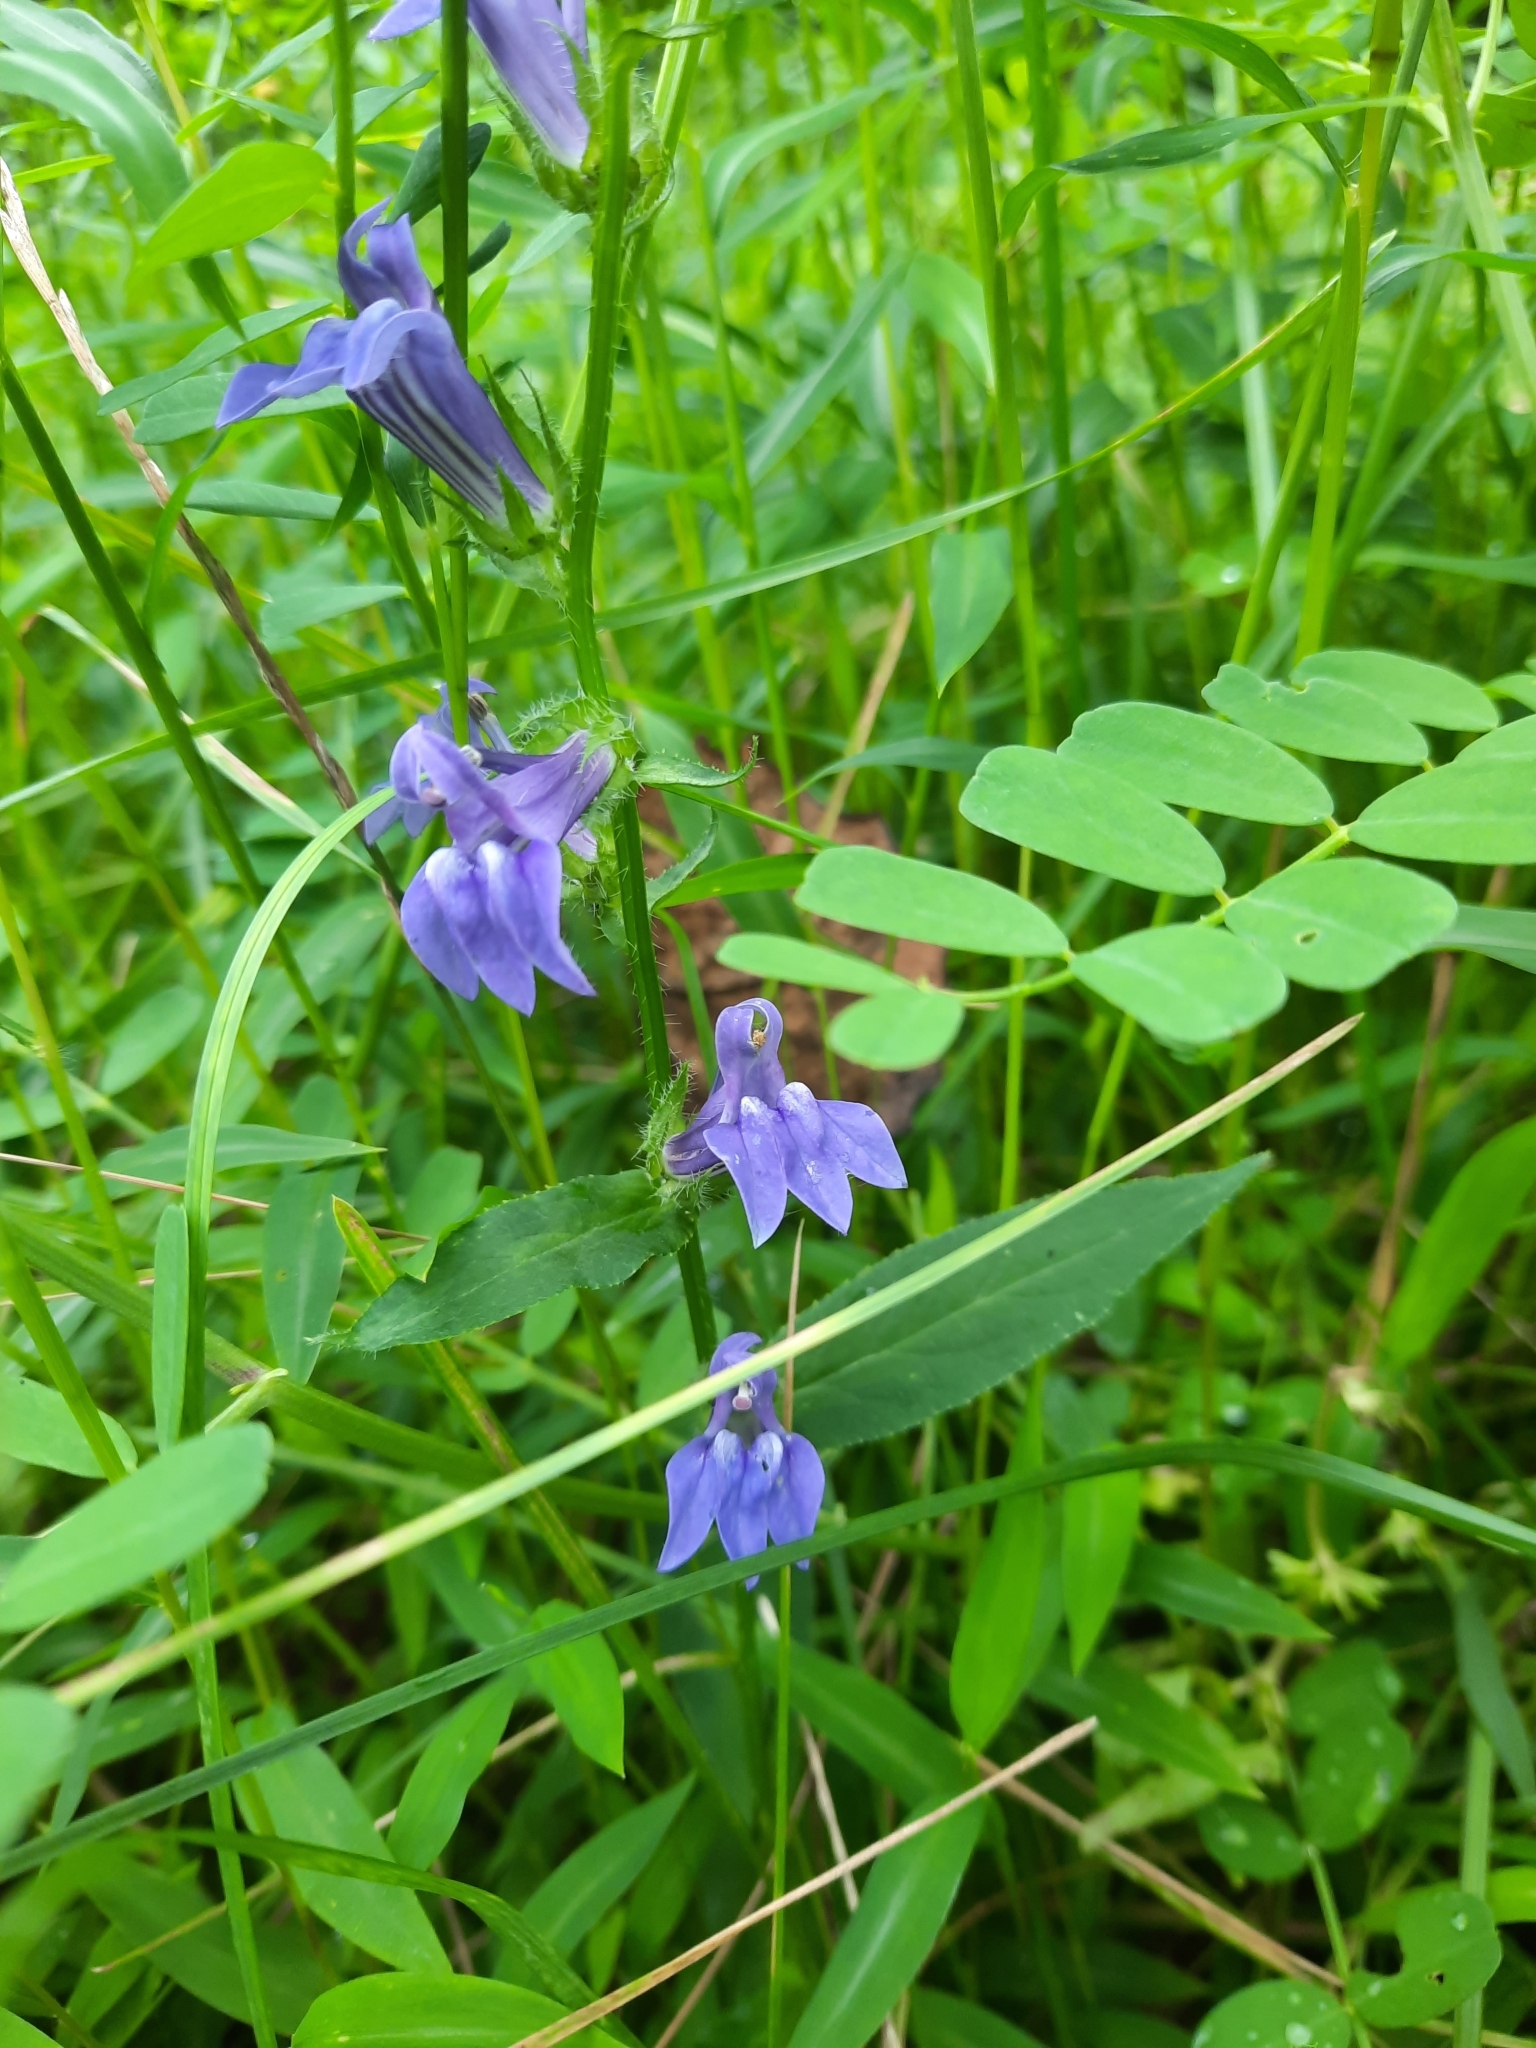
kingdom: Plantae
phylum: Tracheophyta
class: Magnoliopsida
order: Asterales
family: Campanulaceae
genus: Lobelia
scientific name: Lobelia siphilitica
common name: Great lobelia
